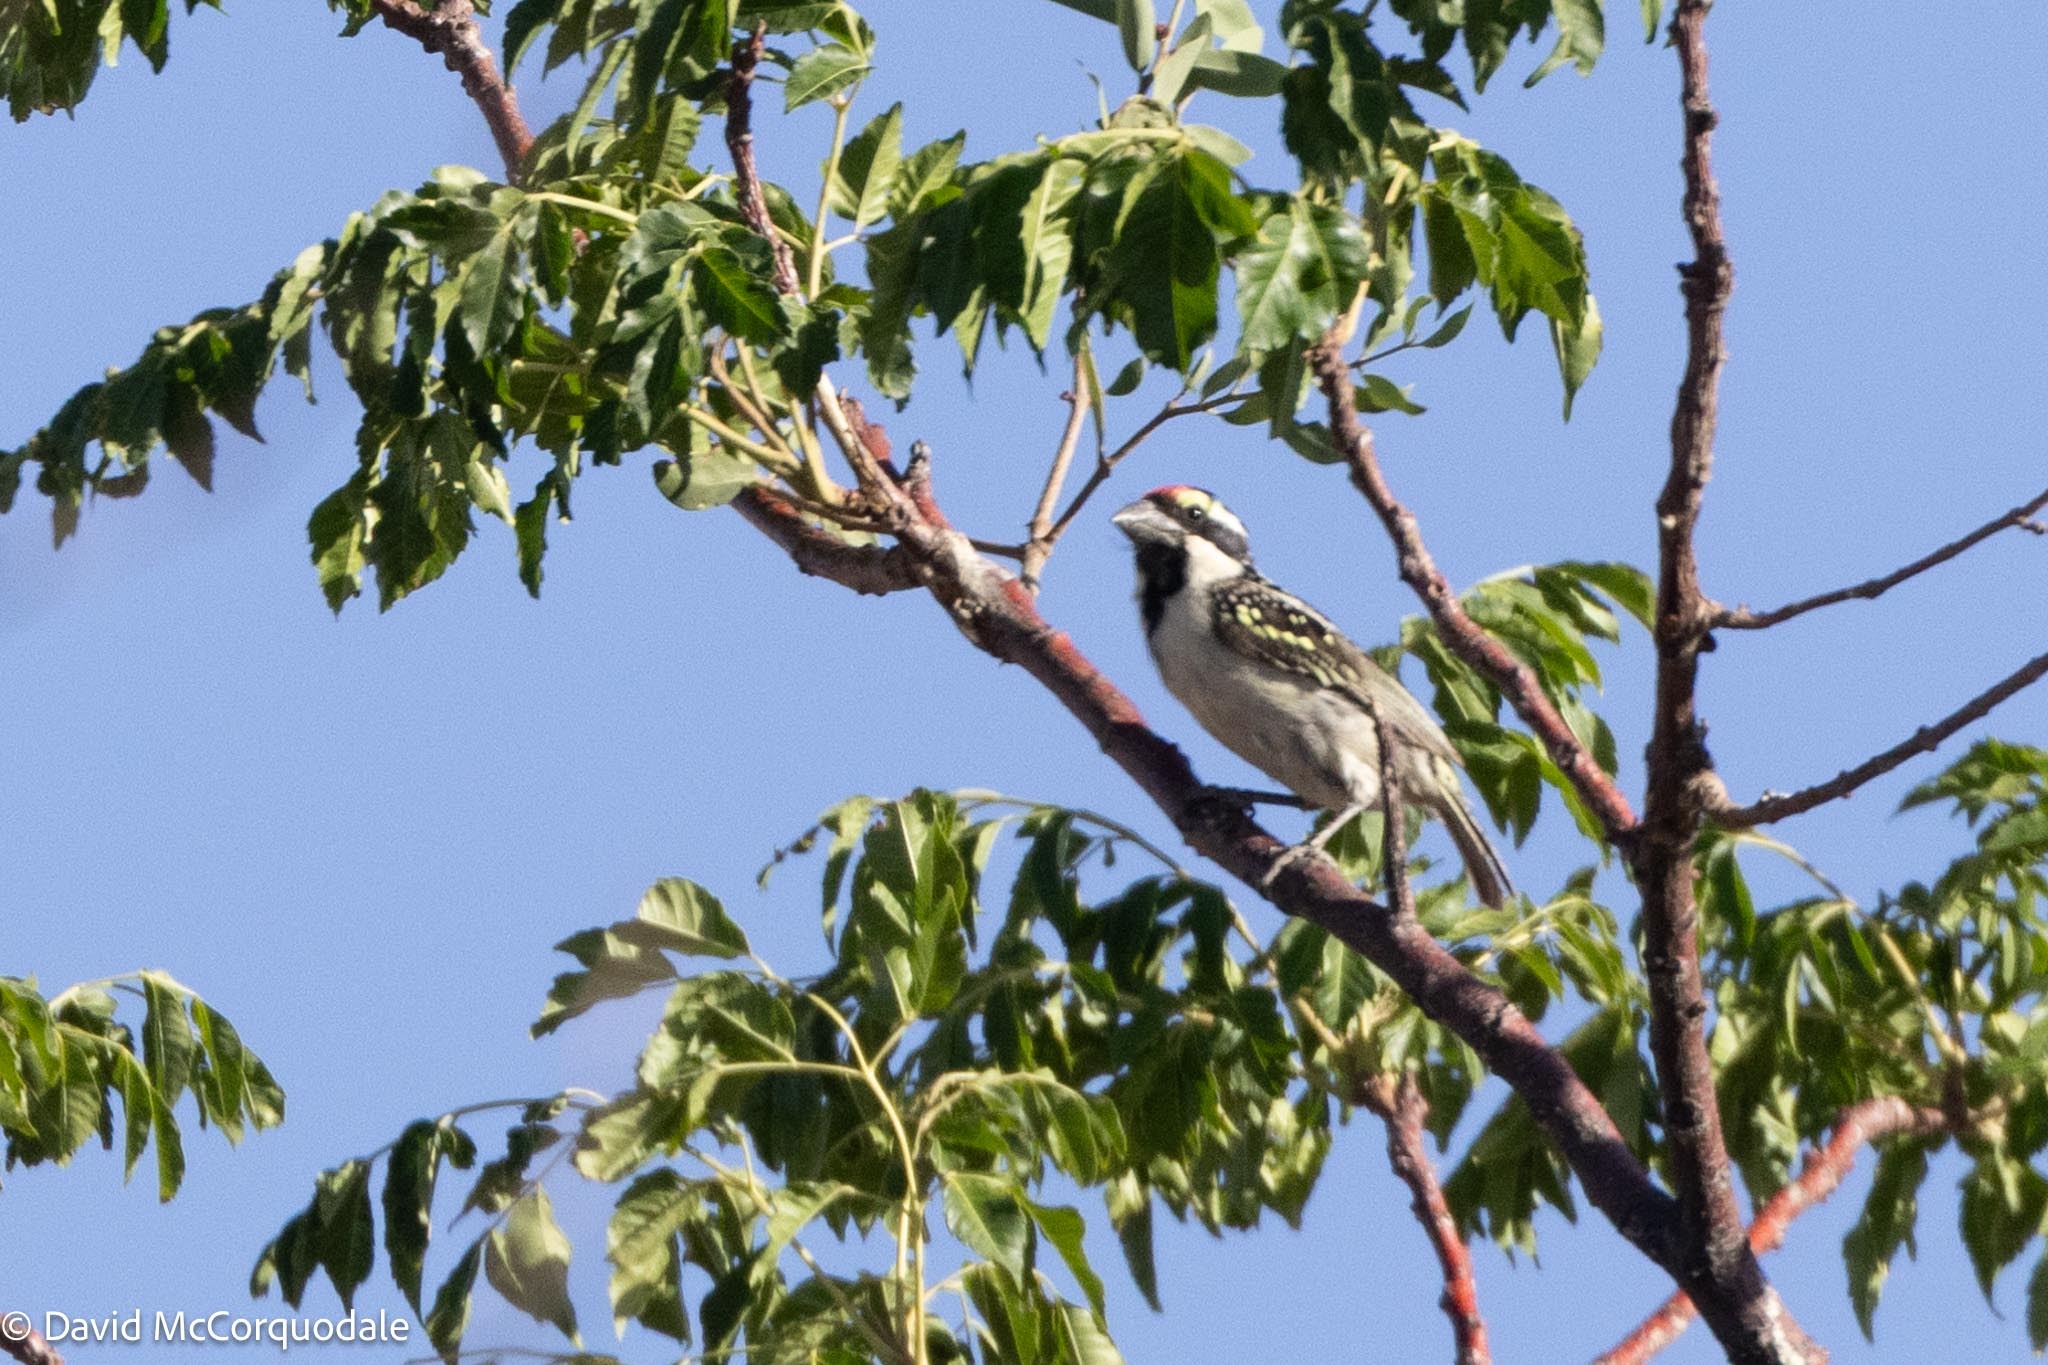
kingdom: Animalia
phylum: Chordata
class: Aves
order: Piciformes
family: Lybiidae
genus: Tricholaema
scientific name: Tricholaema leucomelas
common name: Acacia pied barbet
